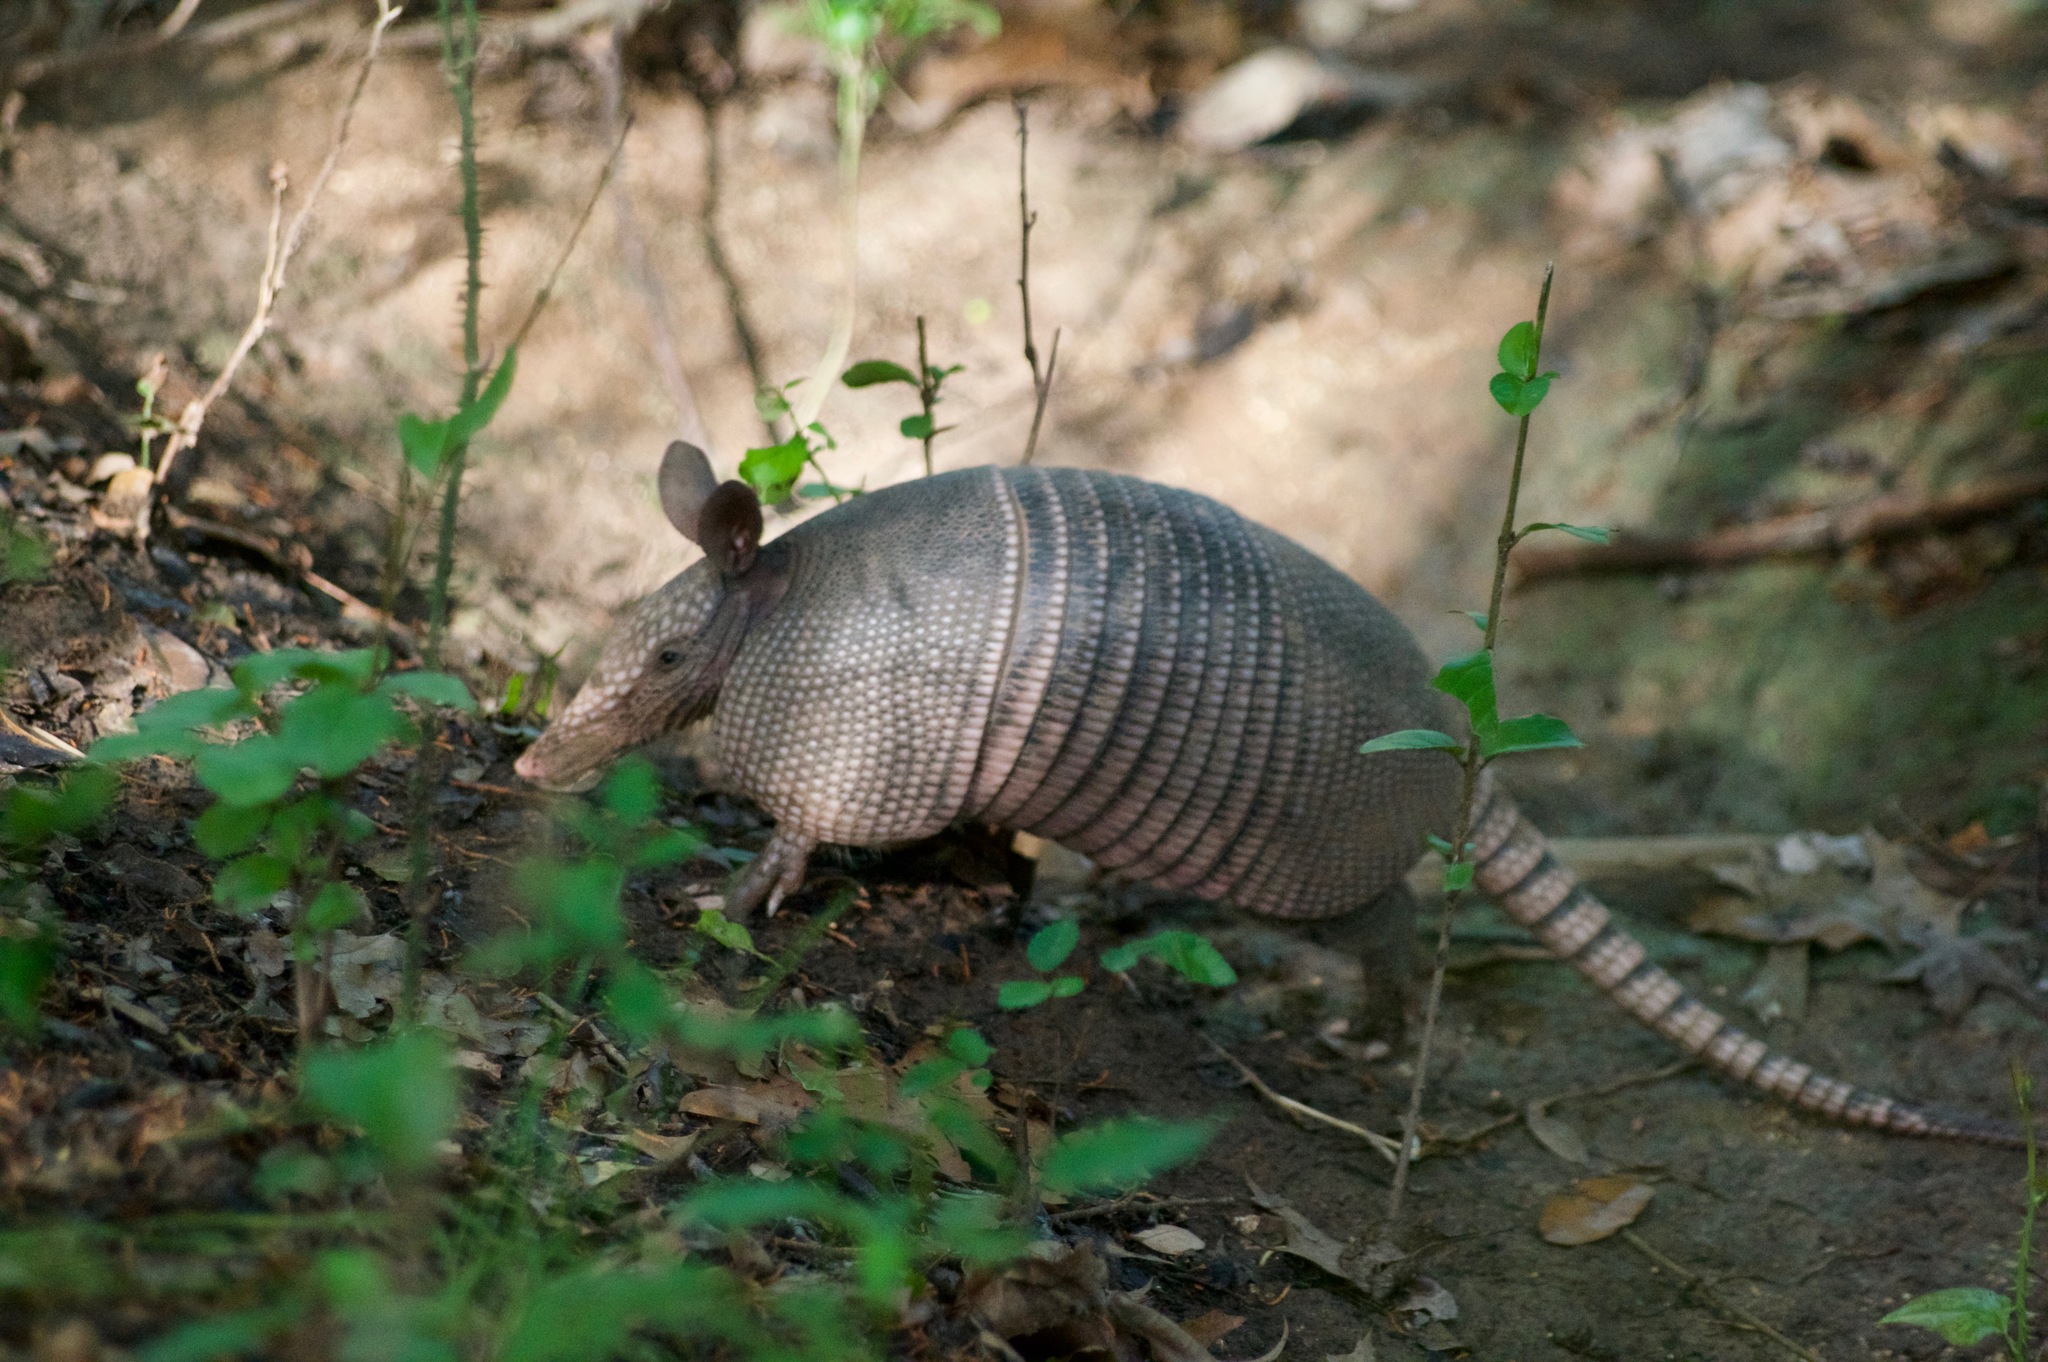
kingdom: Animalia
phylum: Chordata
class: Mammalia
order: Cingulata
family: Dasypodidae
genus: Dasypus
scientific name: Dasypus novemcinctus
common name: Nine-banded armadillo
